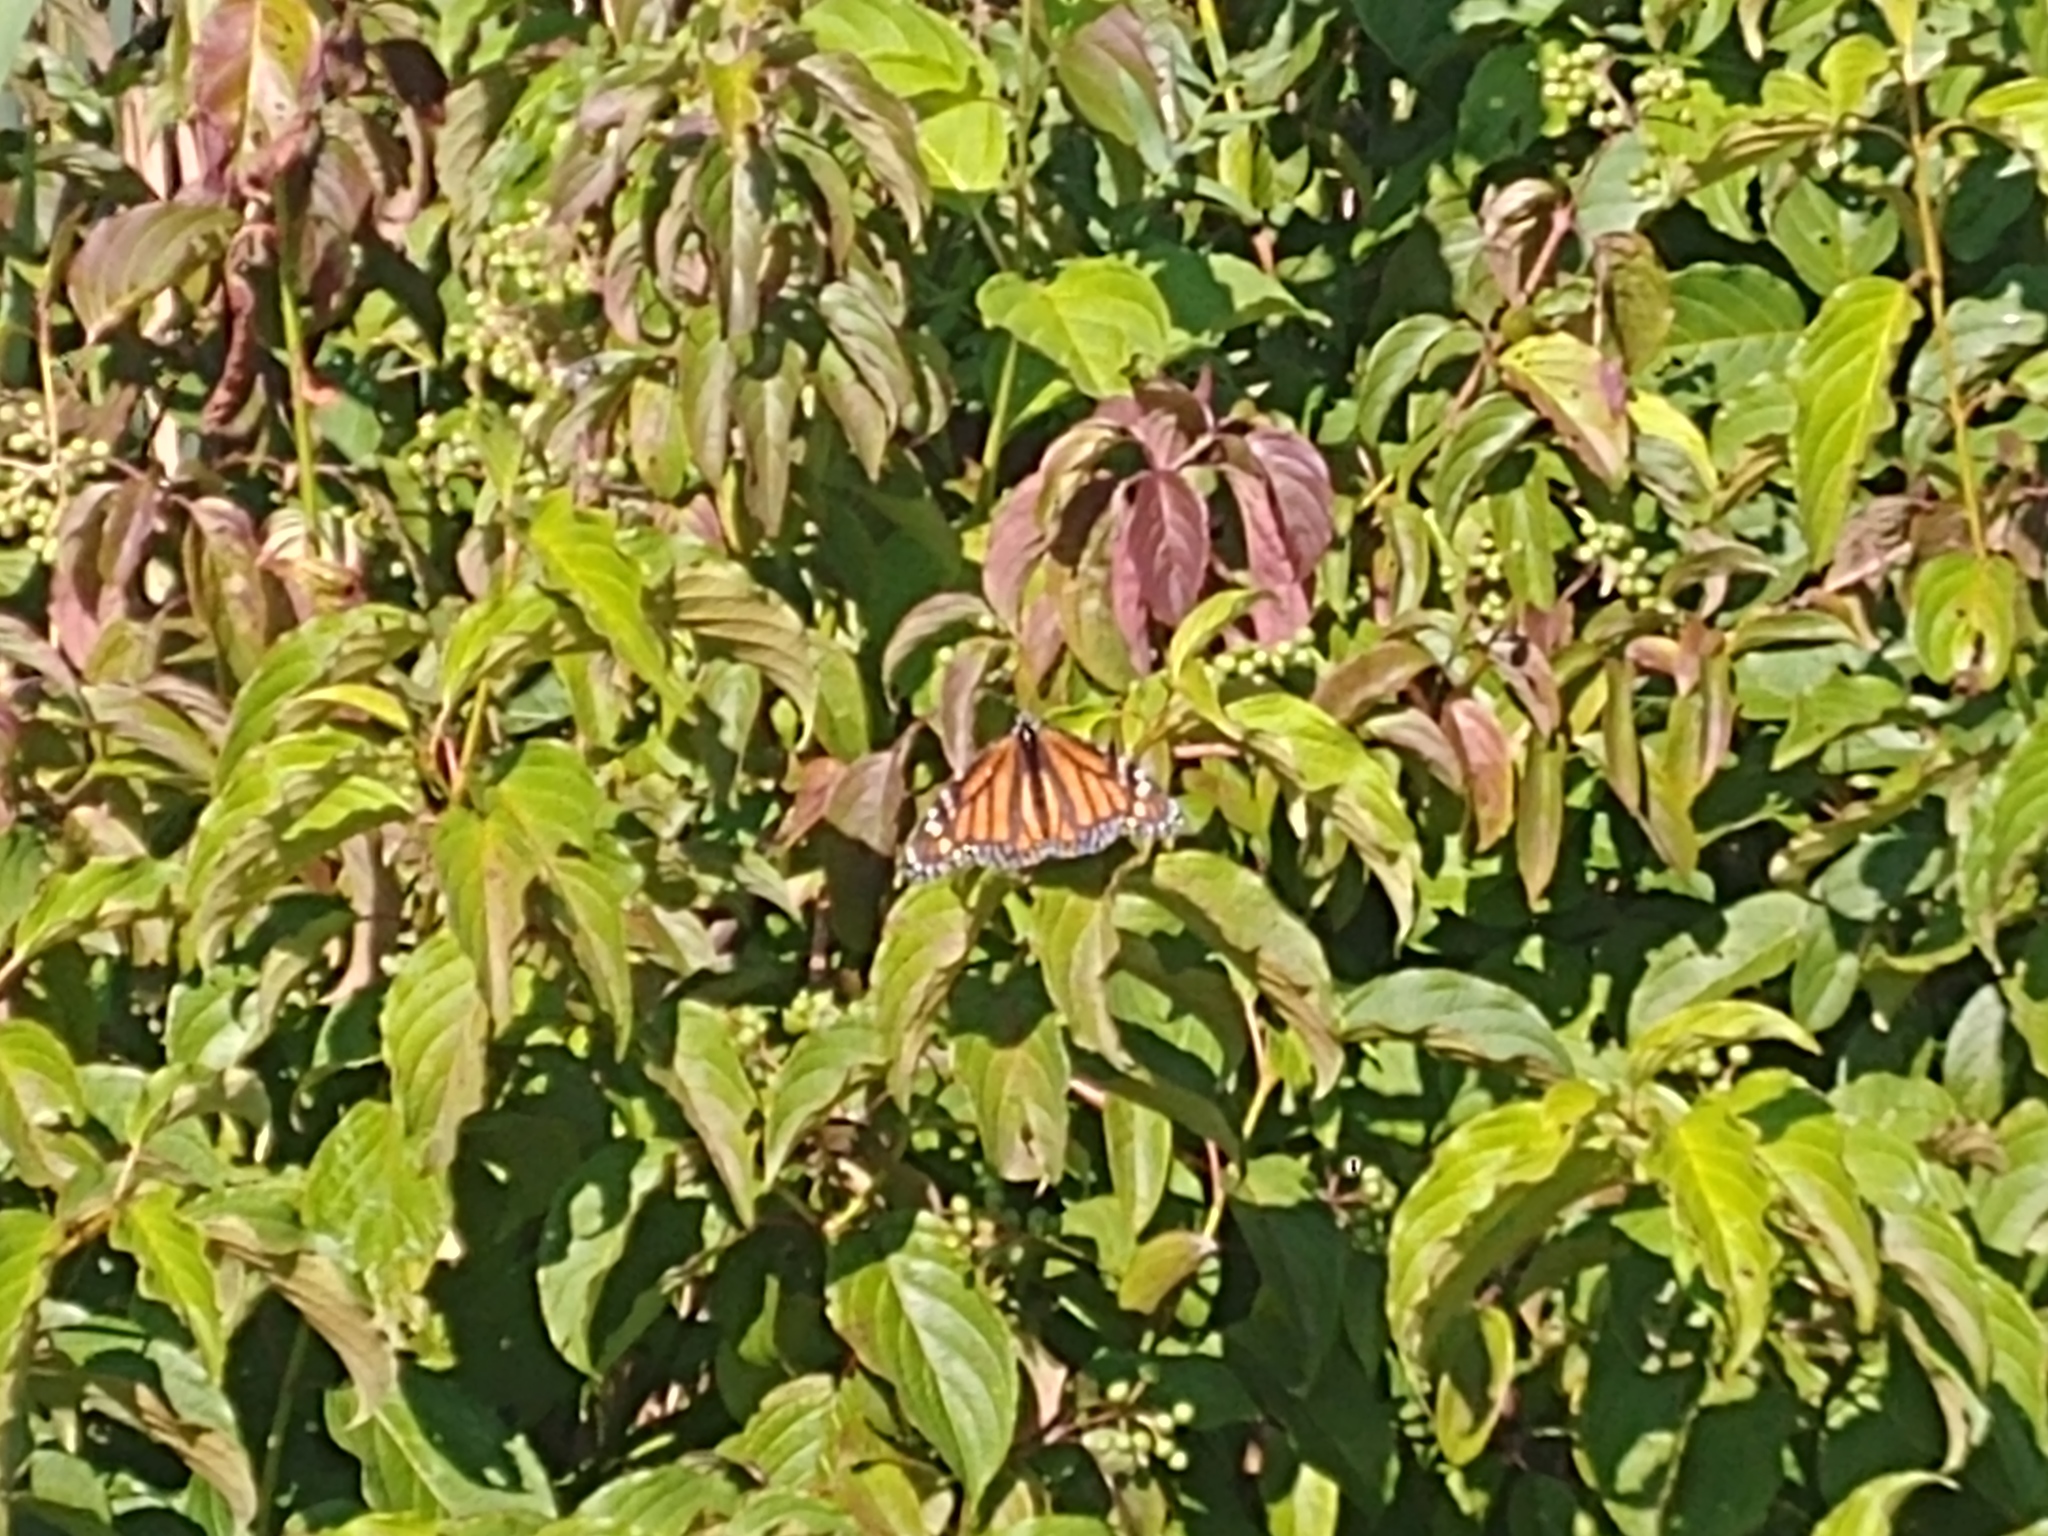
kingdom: Animalia
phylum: Arthropoda
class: Insecta
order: Lepidoptera
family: Nymphalidae
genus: Danaus
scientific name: Danaus plexippus
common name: Monarch
